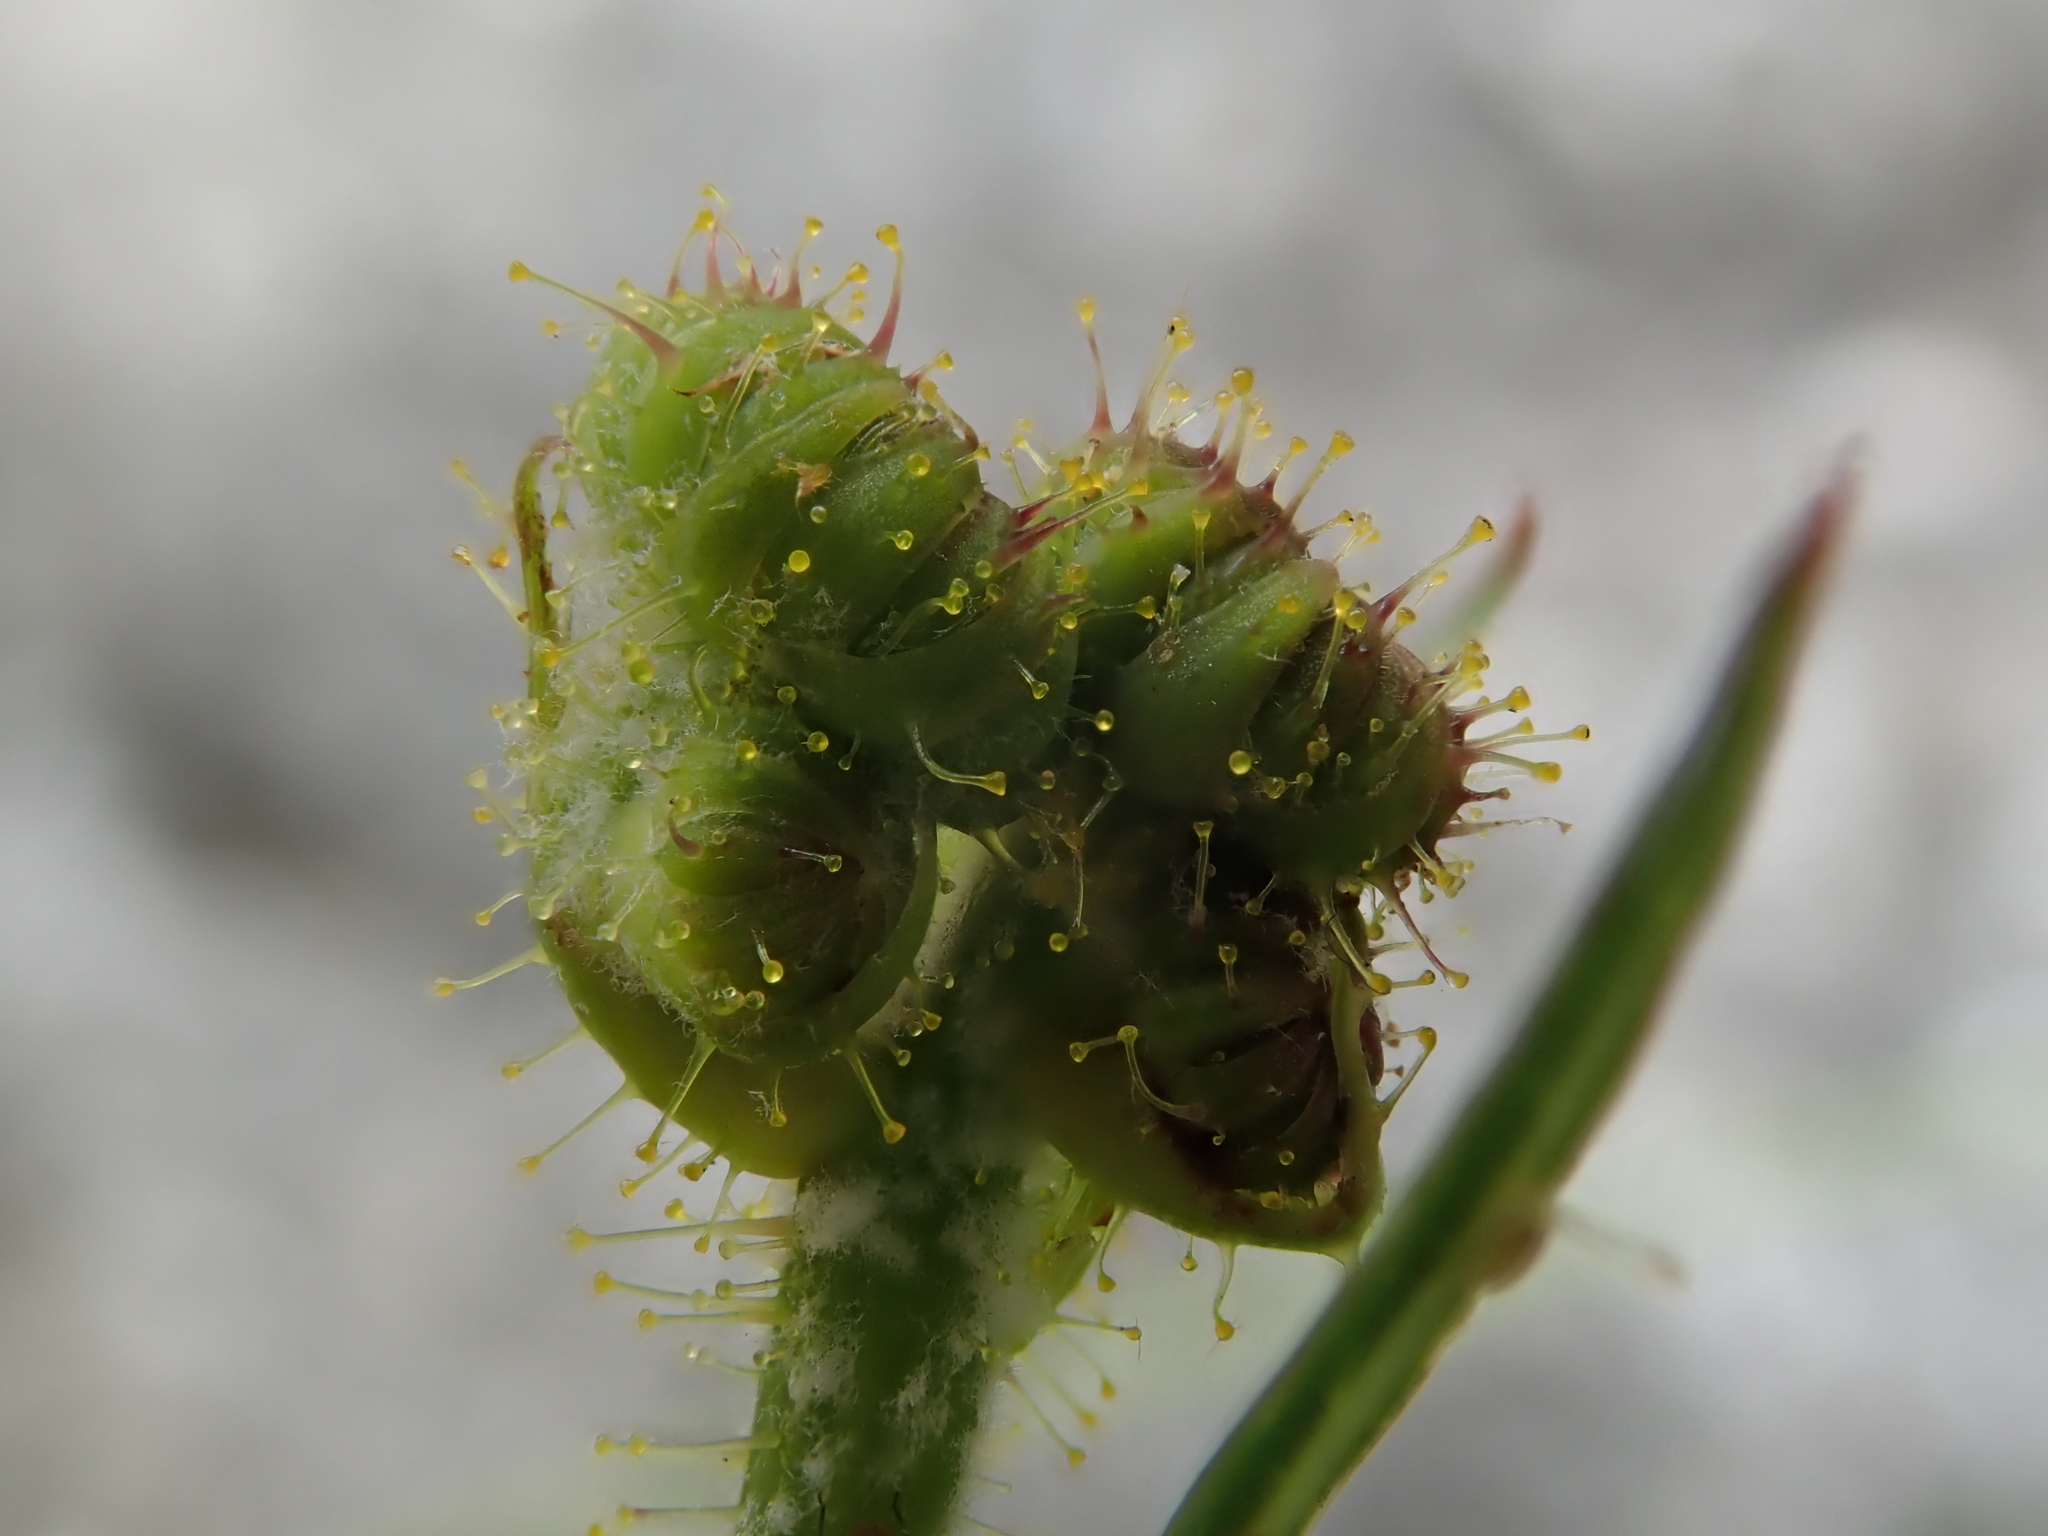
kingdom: Plantae
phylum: Tracheophyta
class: Magnoliopsida
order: Asterales
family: Asteraceae
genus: Sonchus
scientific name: Sonchus arvensis
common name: Perennial sow-thistle
